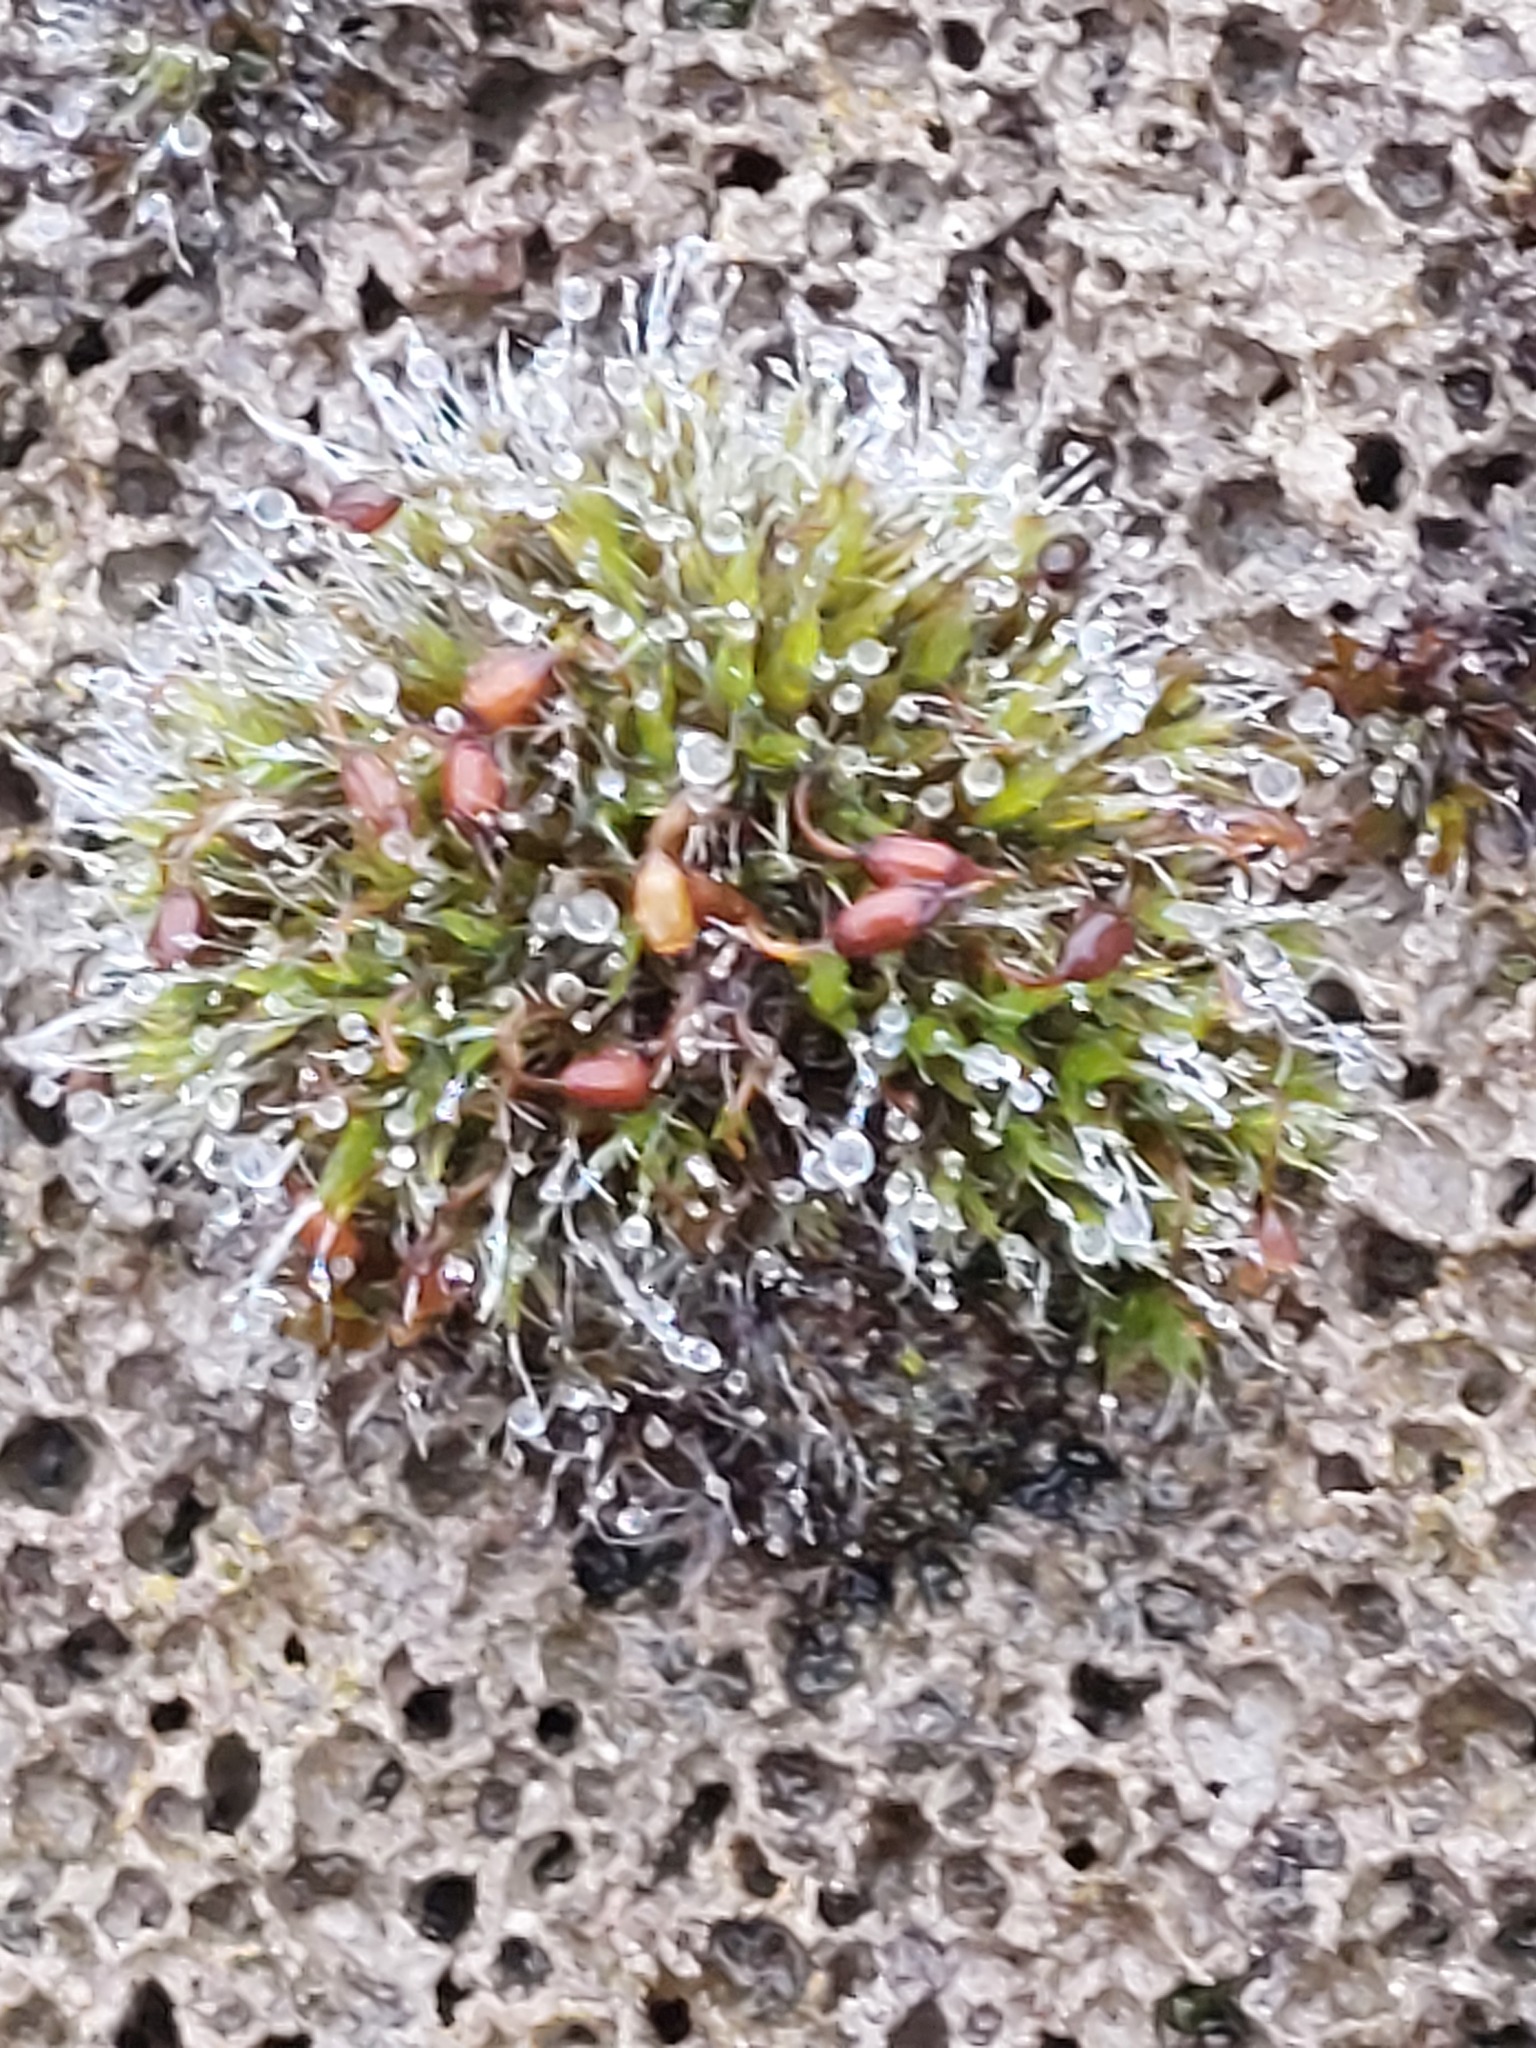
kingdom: Plantae
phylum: Bryophyta
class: Bryopsida
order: Grimmiales
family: Grimmiaceae
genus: Grimmia
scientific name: Grimmia pulvinata
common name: Grey-cushioned grimmia
